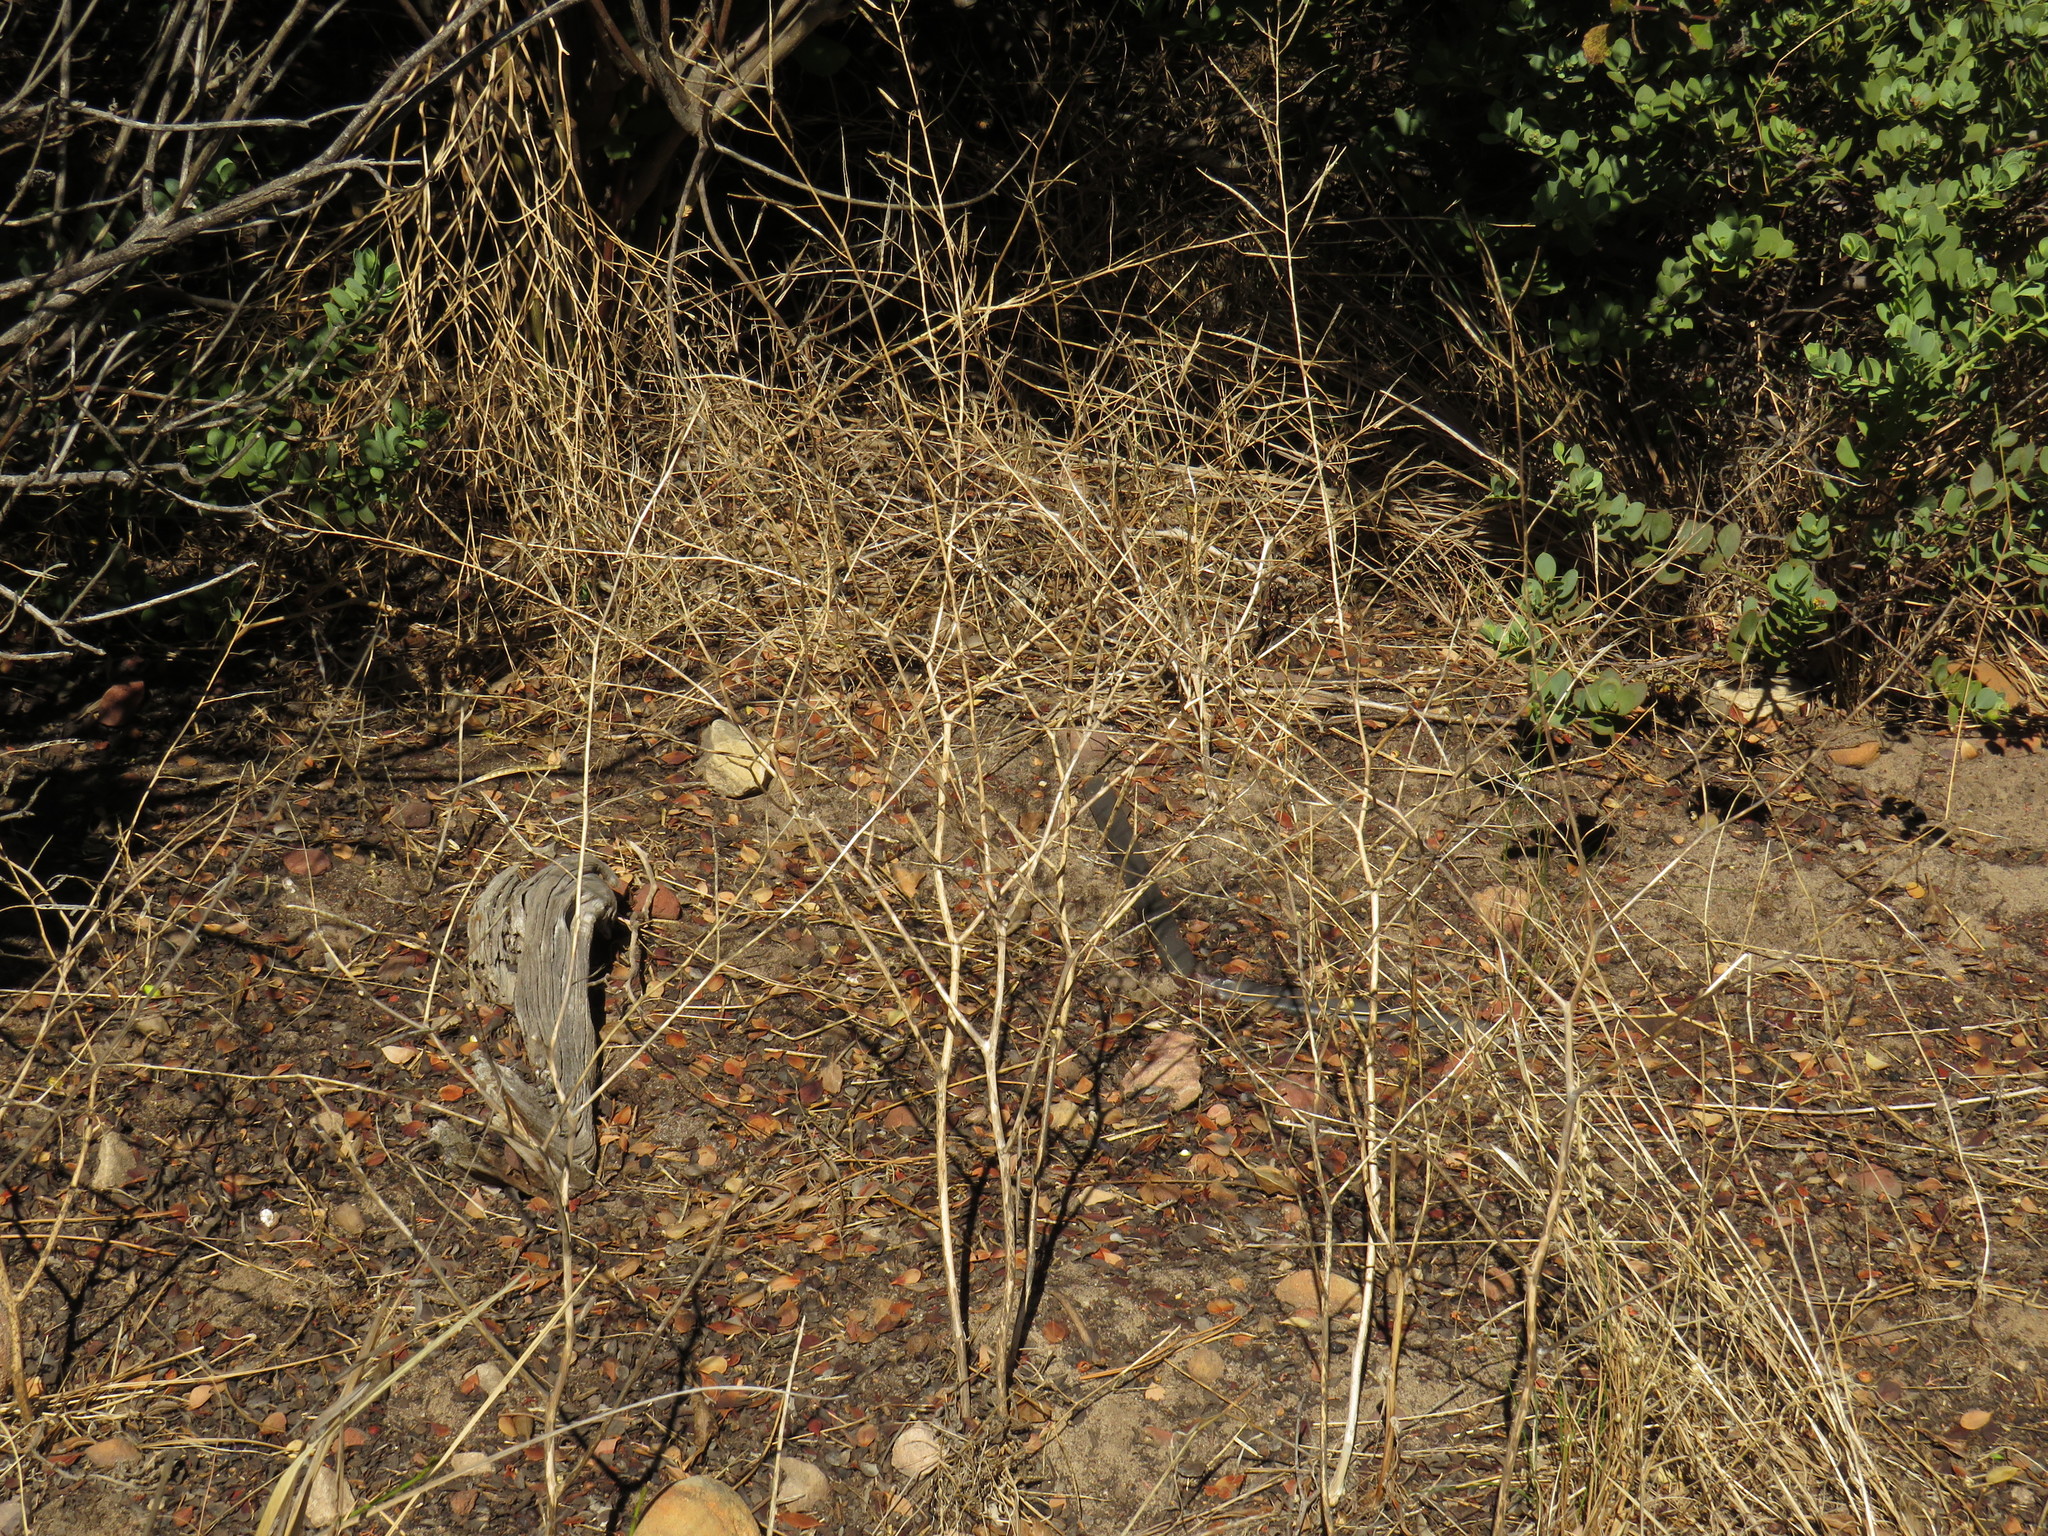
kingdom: Plantae
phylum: Tracheophyta
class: Magnoliopsida
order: Brassicales
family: Brassicaceae
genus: Raphanus
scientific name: Raphanus raphanistrum
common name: Wild radish
